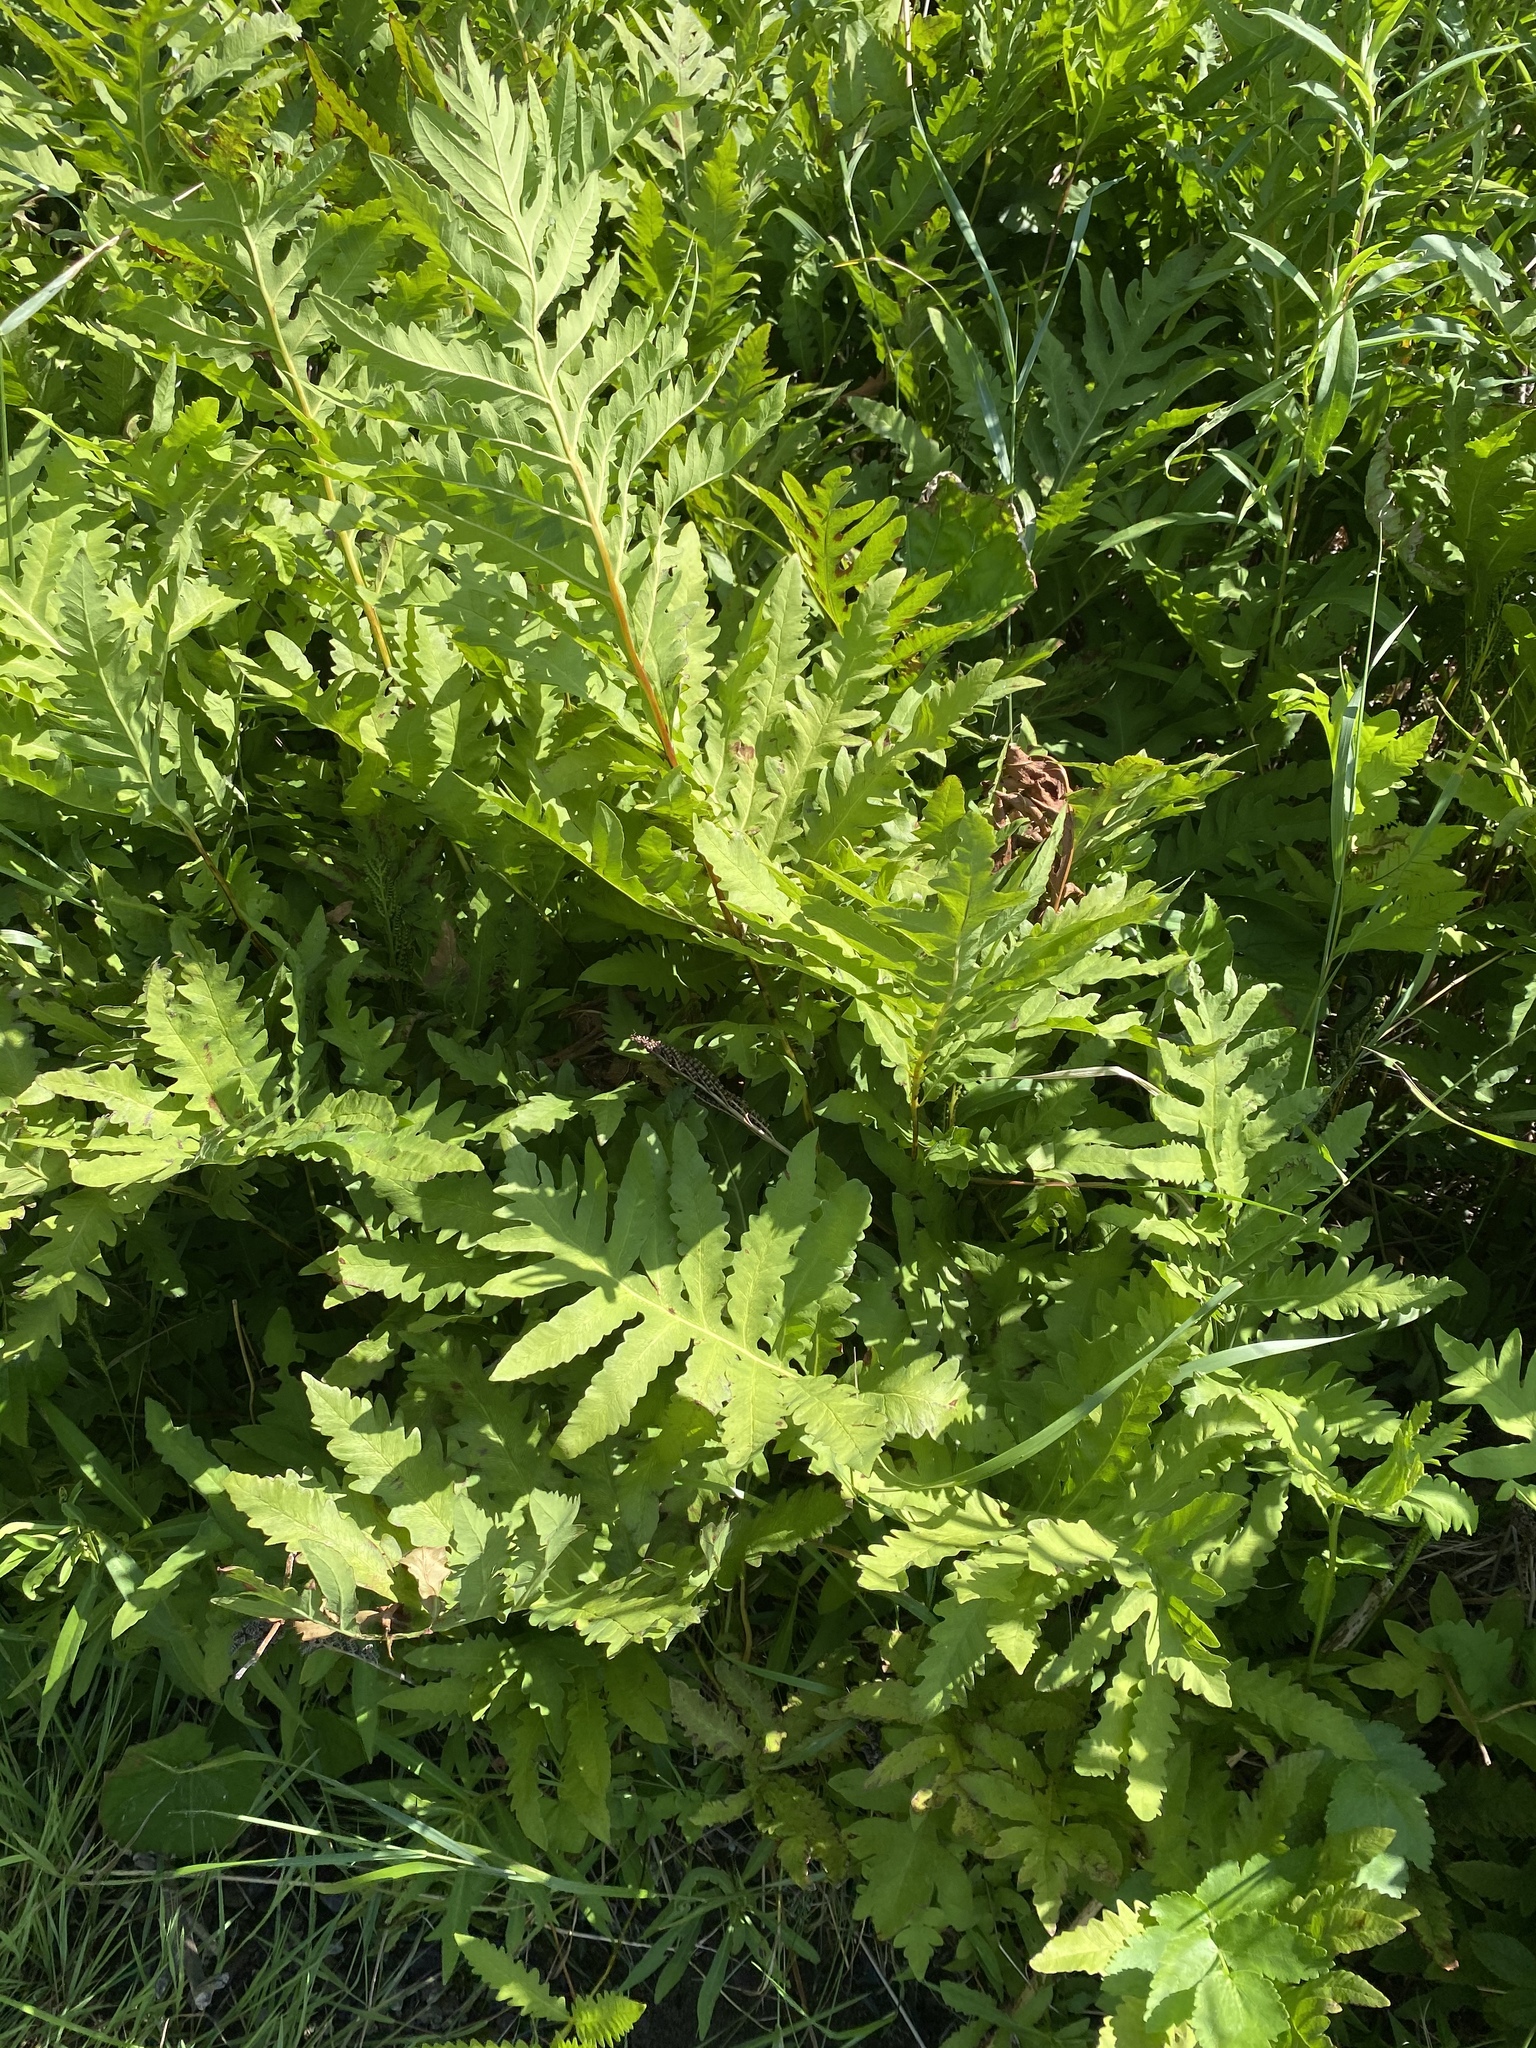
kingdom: Plantae
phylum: Tracheophyta
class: Polypodiopsida
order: Polypodiales
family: Onocleaceae
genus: Onoclea
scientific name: Onoclea sensibilis
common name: Sensitive fern
